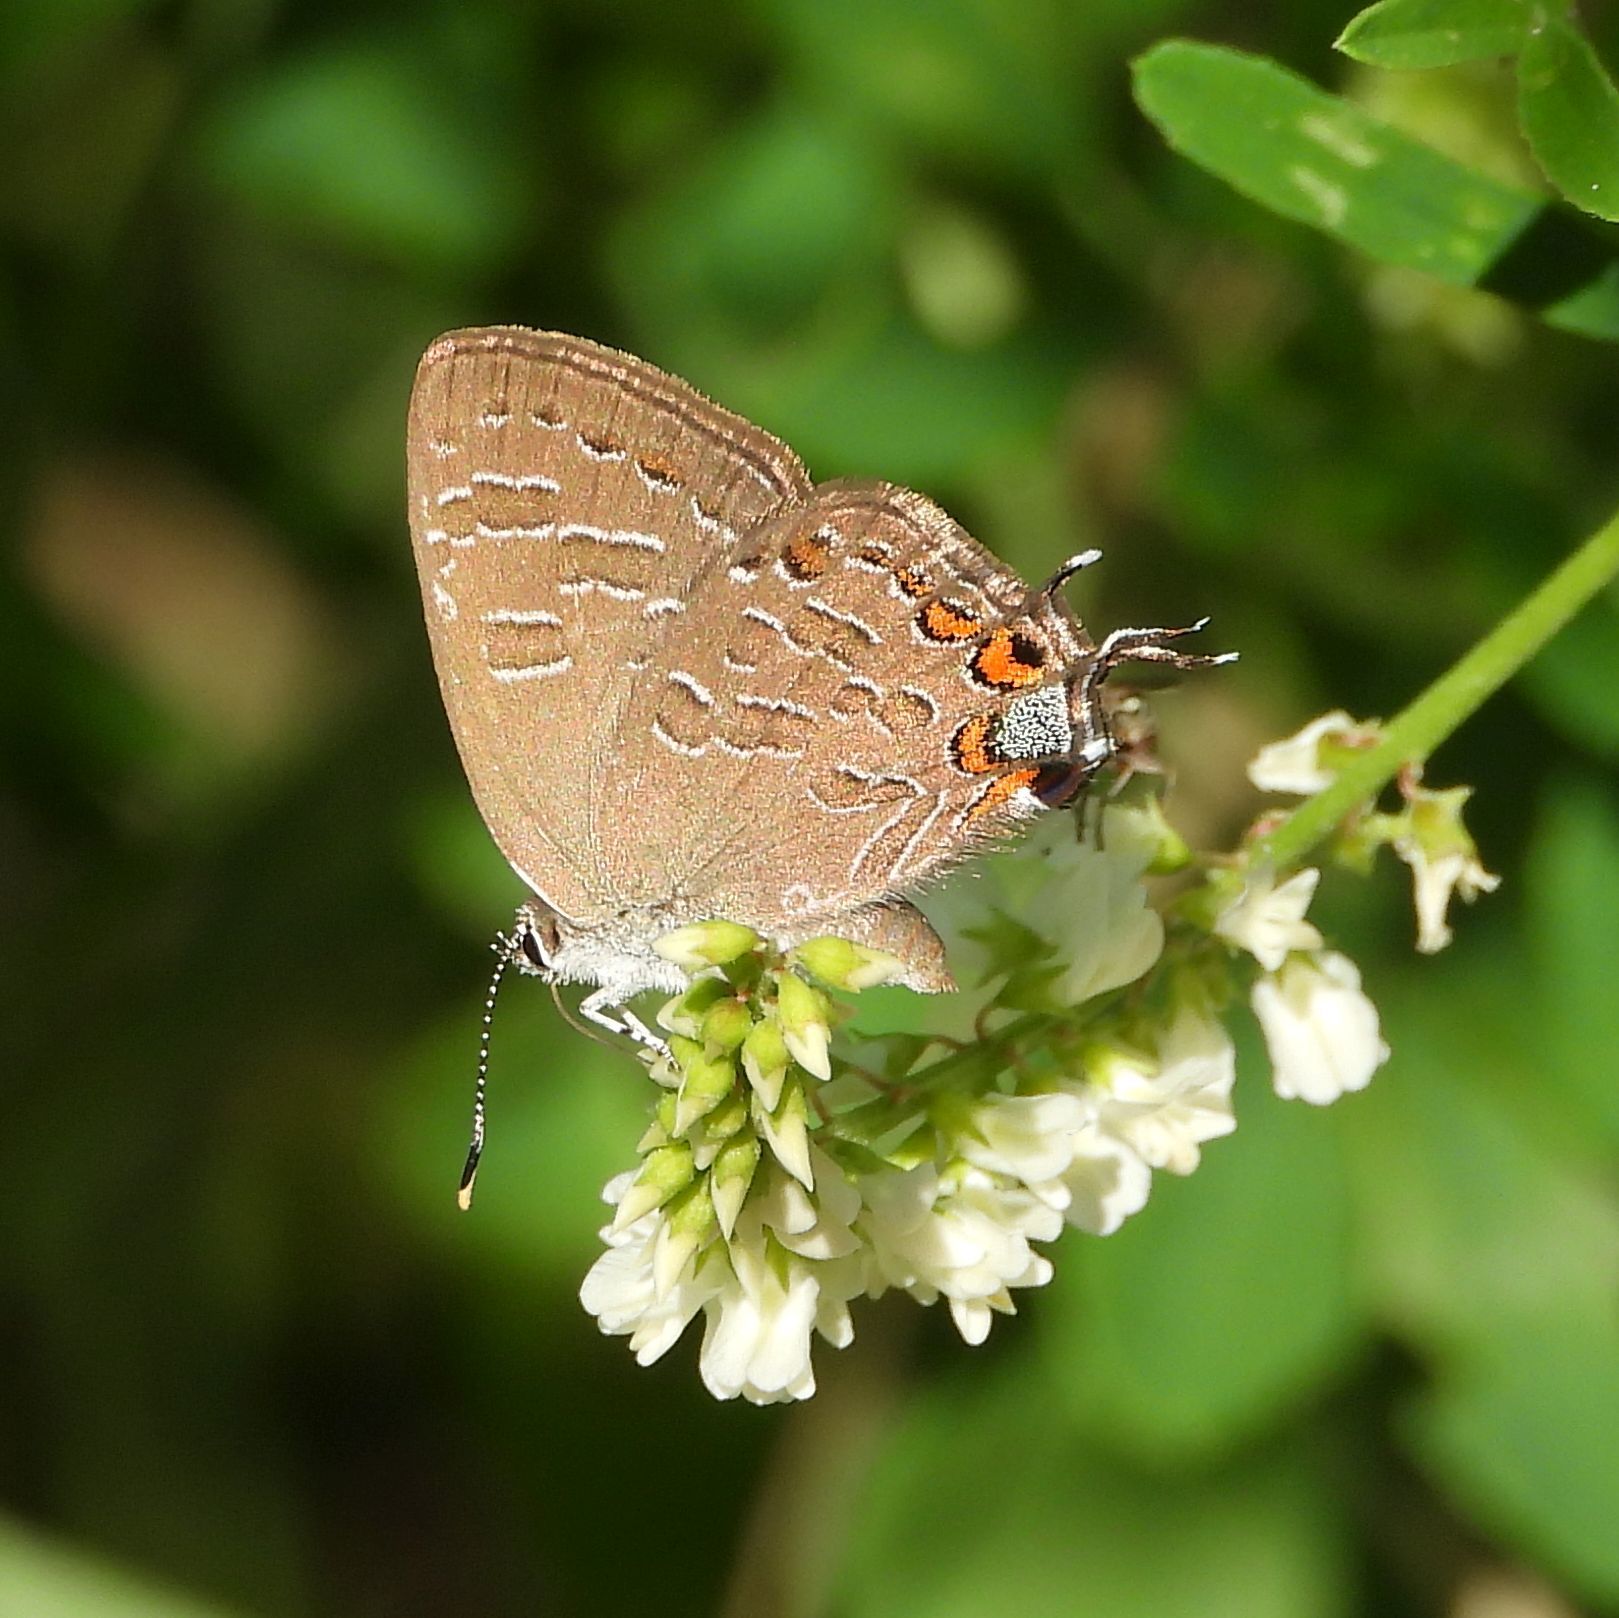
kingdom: Animalia
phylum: Arthropoda
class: Insecta
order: Lepidoptera
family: Lycaenidae
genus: Satyrium
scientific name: Satyrium liparops
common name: Striped hairstreak
